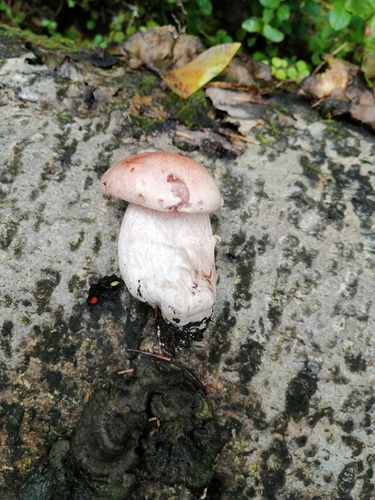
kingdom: Fungi
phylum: Basidiomycota
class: Agaricomycetes
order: Agaricales
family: Hygrophoraceae
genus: Hygrophorus
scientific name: Hygrophorus erubescens
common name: Blotched woodwax
